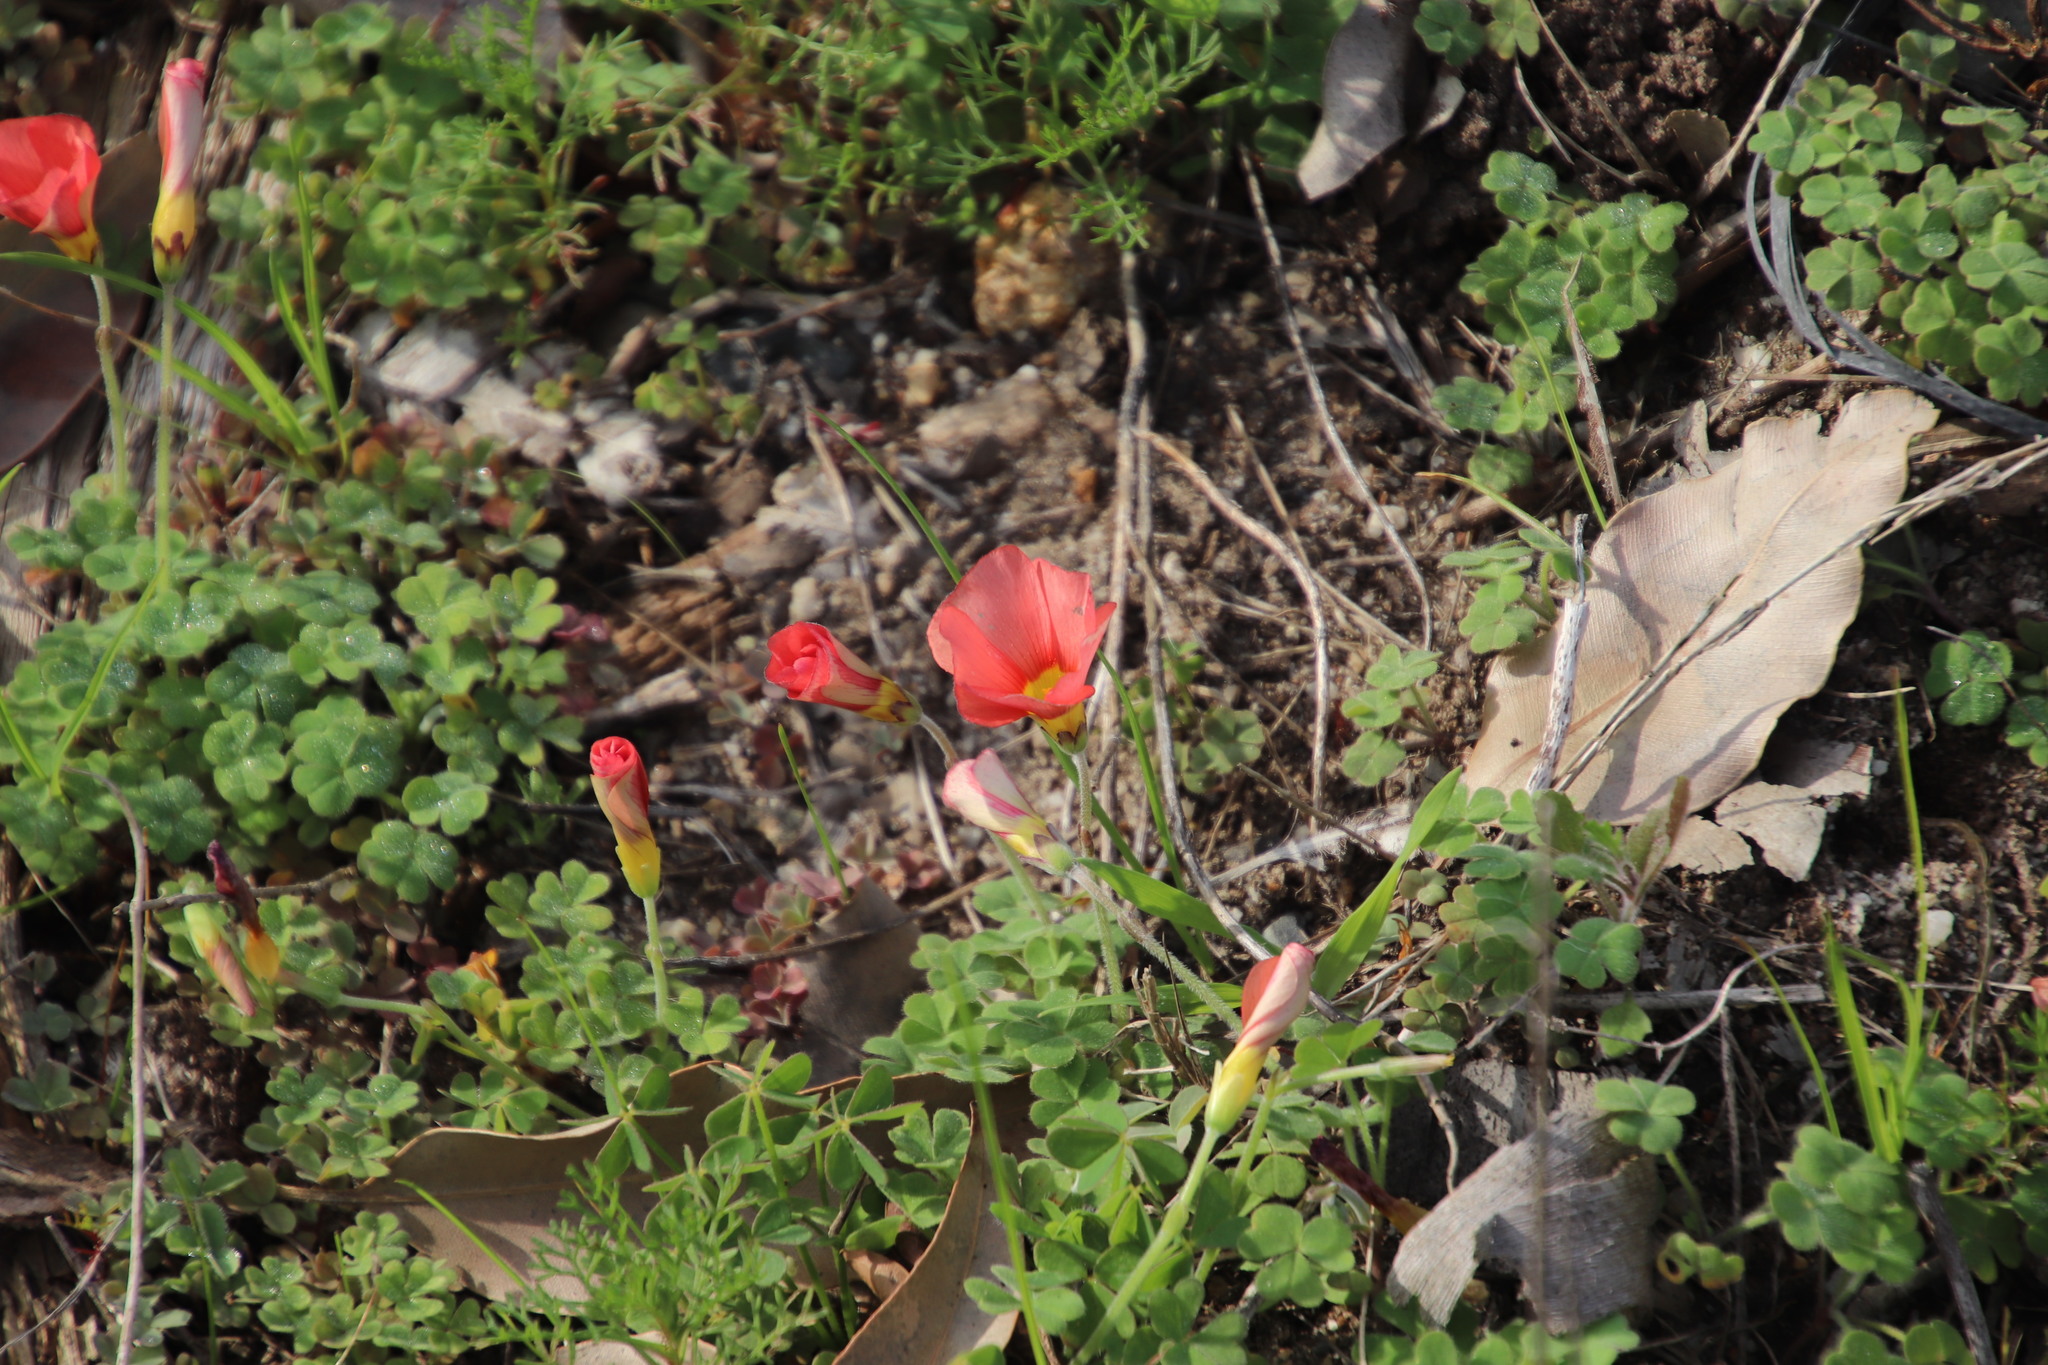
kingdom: Plantae
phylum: Tracheophyta
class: Magnoliopsida
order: Oxalidales
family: Oxalidaceae
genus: Oxalis
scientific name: Oxalis obtusa
